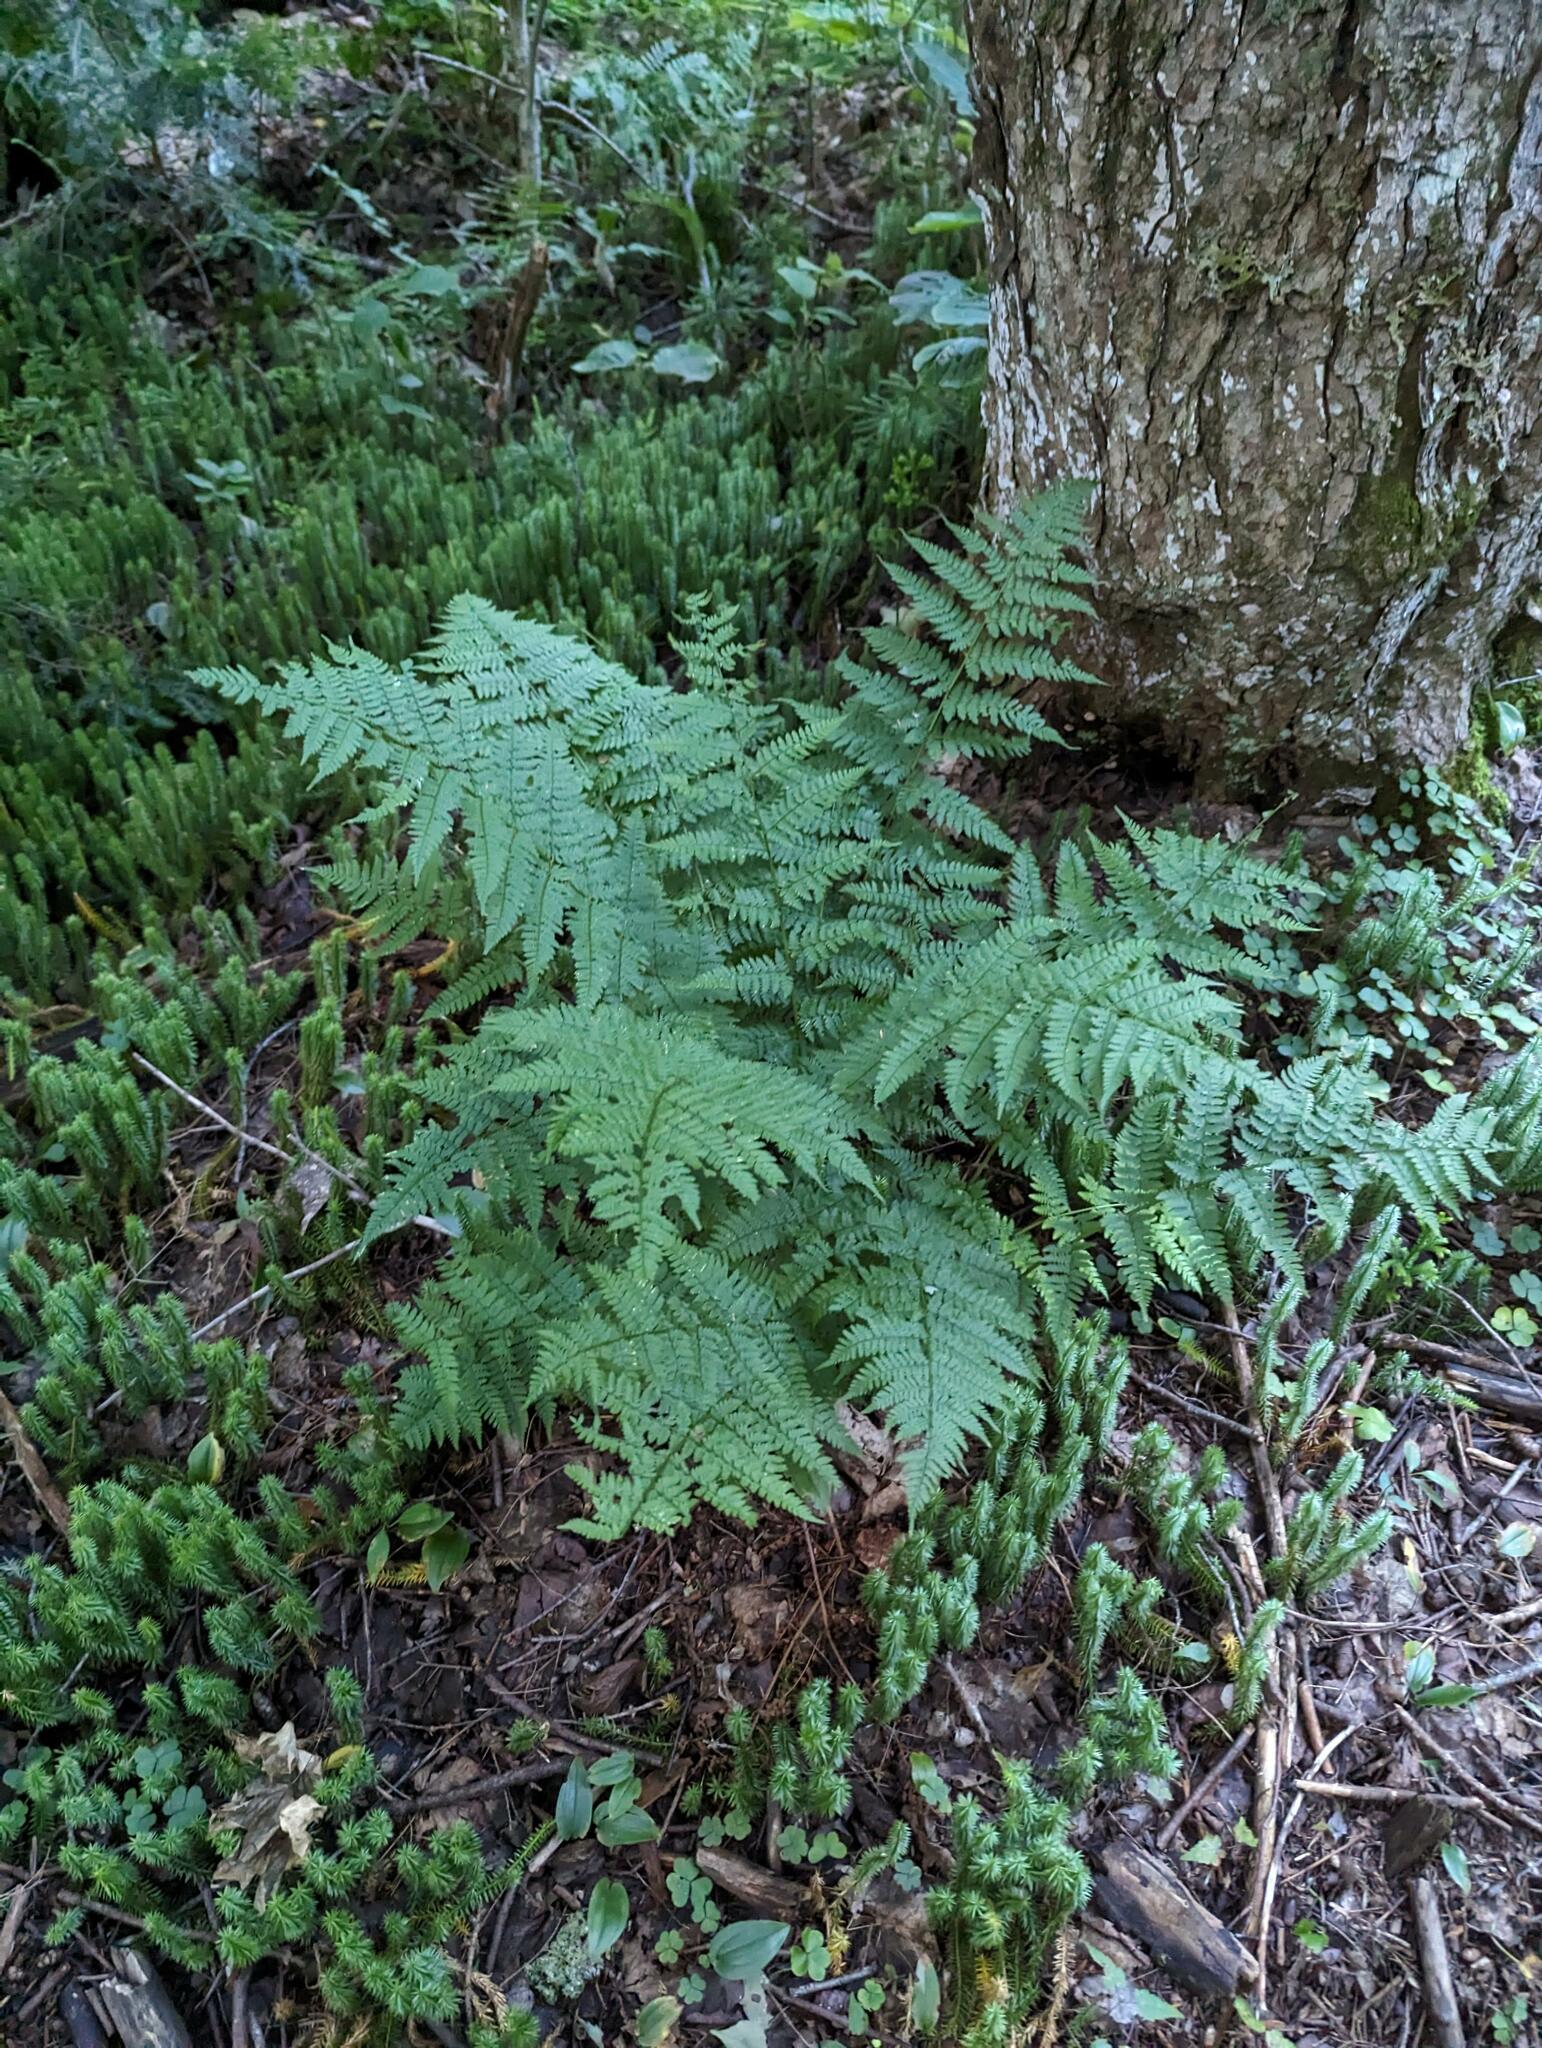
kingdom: Plantae
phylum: Tracheophyta
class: Polypodiopsida
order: Polypodiales
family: Dryopteridaceae
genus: Dryopteris
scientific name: Dryopteris intermedia
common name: Evergreen wood fern
